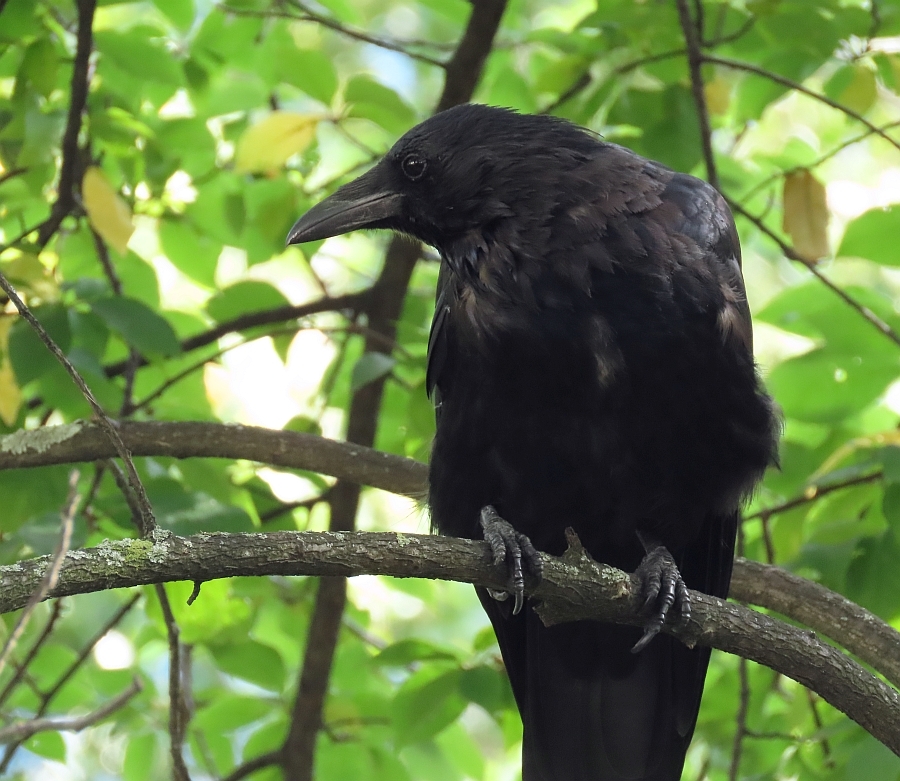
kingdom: Animalia
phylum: Chordata
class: Aves
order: Passeriformes
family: Corvidae
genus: Corvus
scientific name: Corvus corone
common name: Carrion crow
